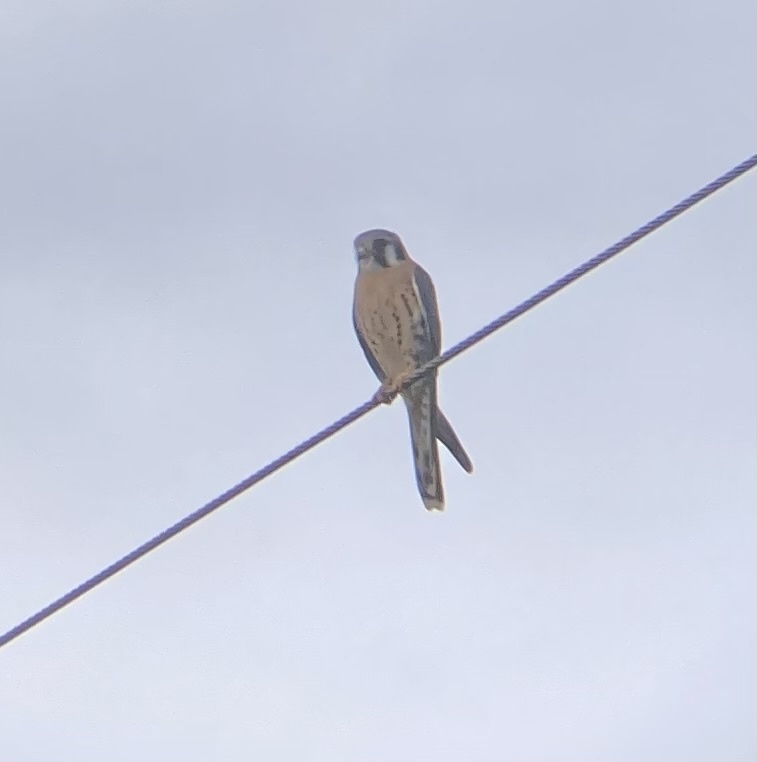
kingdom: Animalia
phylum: Chordata
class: Aves
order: Falconiformes
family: Falconidae
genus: Falco
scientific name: Falco sparverius
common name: American kestrel
